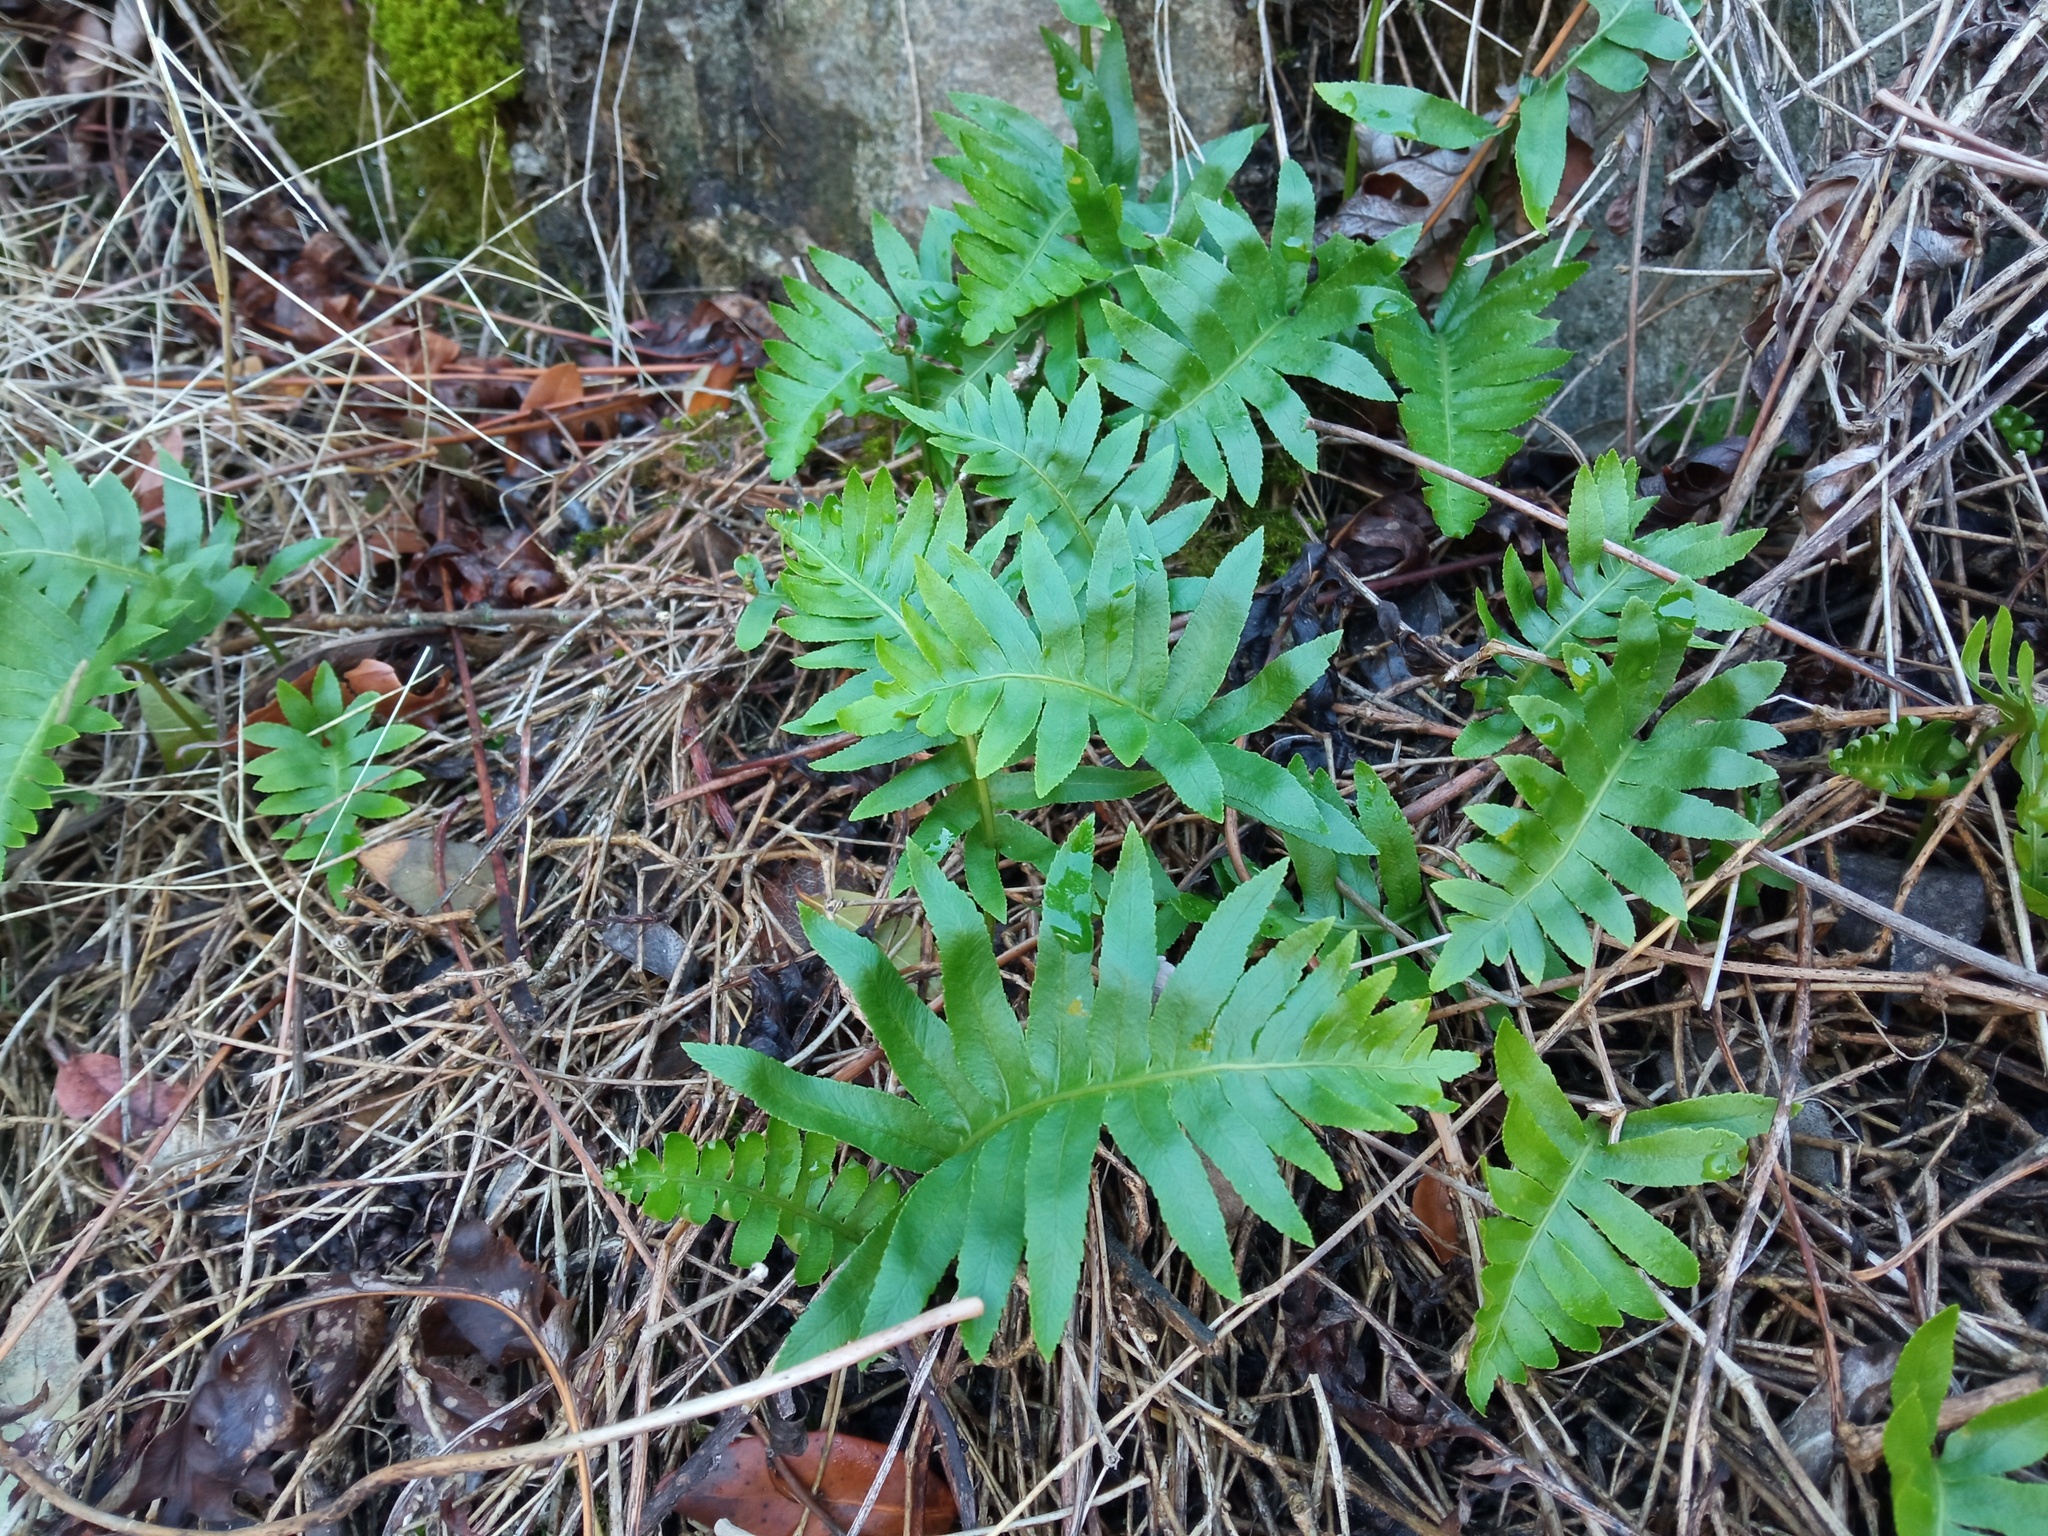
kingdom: Plantae
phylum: Tracheophyta
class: Polypodiopsida
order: Polypodiales
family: Polypodiaceae
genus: Polypodium
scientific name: Polypodium cambricum
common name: Southern polypody
